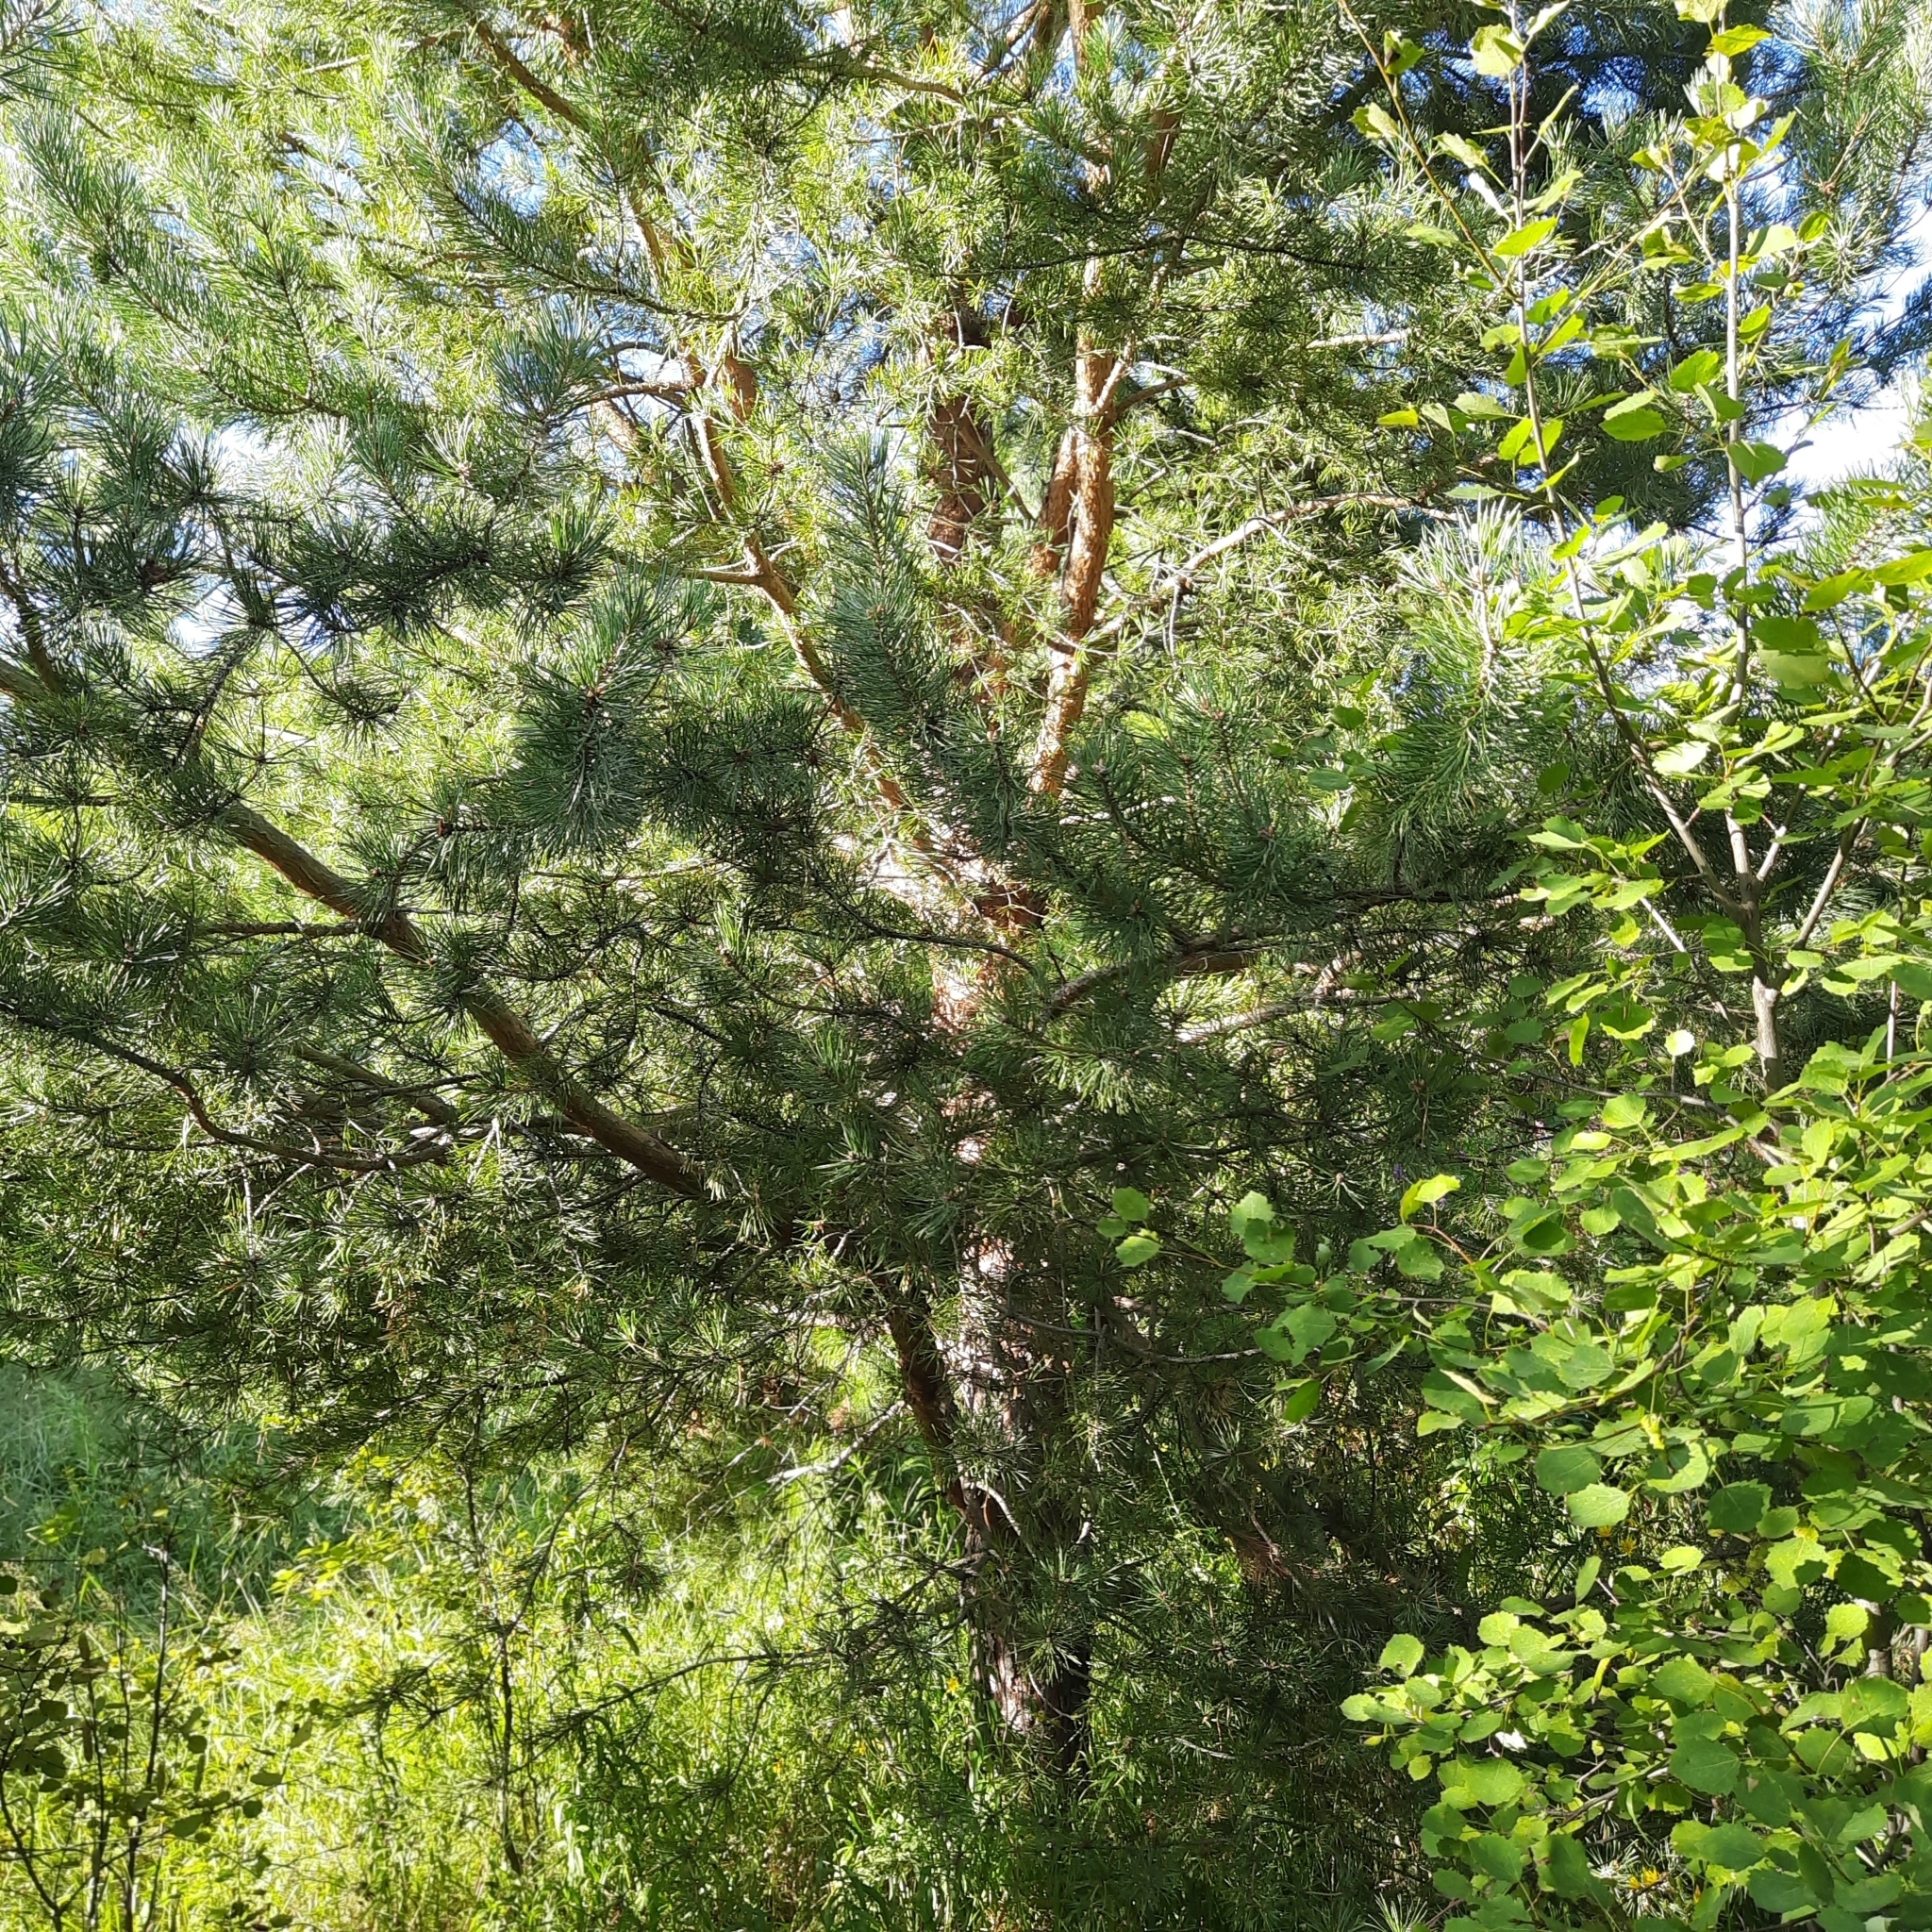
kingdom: Plantae
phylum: Tracheophyta
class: Pinopsida
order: Pinales
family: Pinaceae
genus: Pinus
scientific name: Pinus sylvestris
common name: Scots pine
